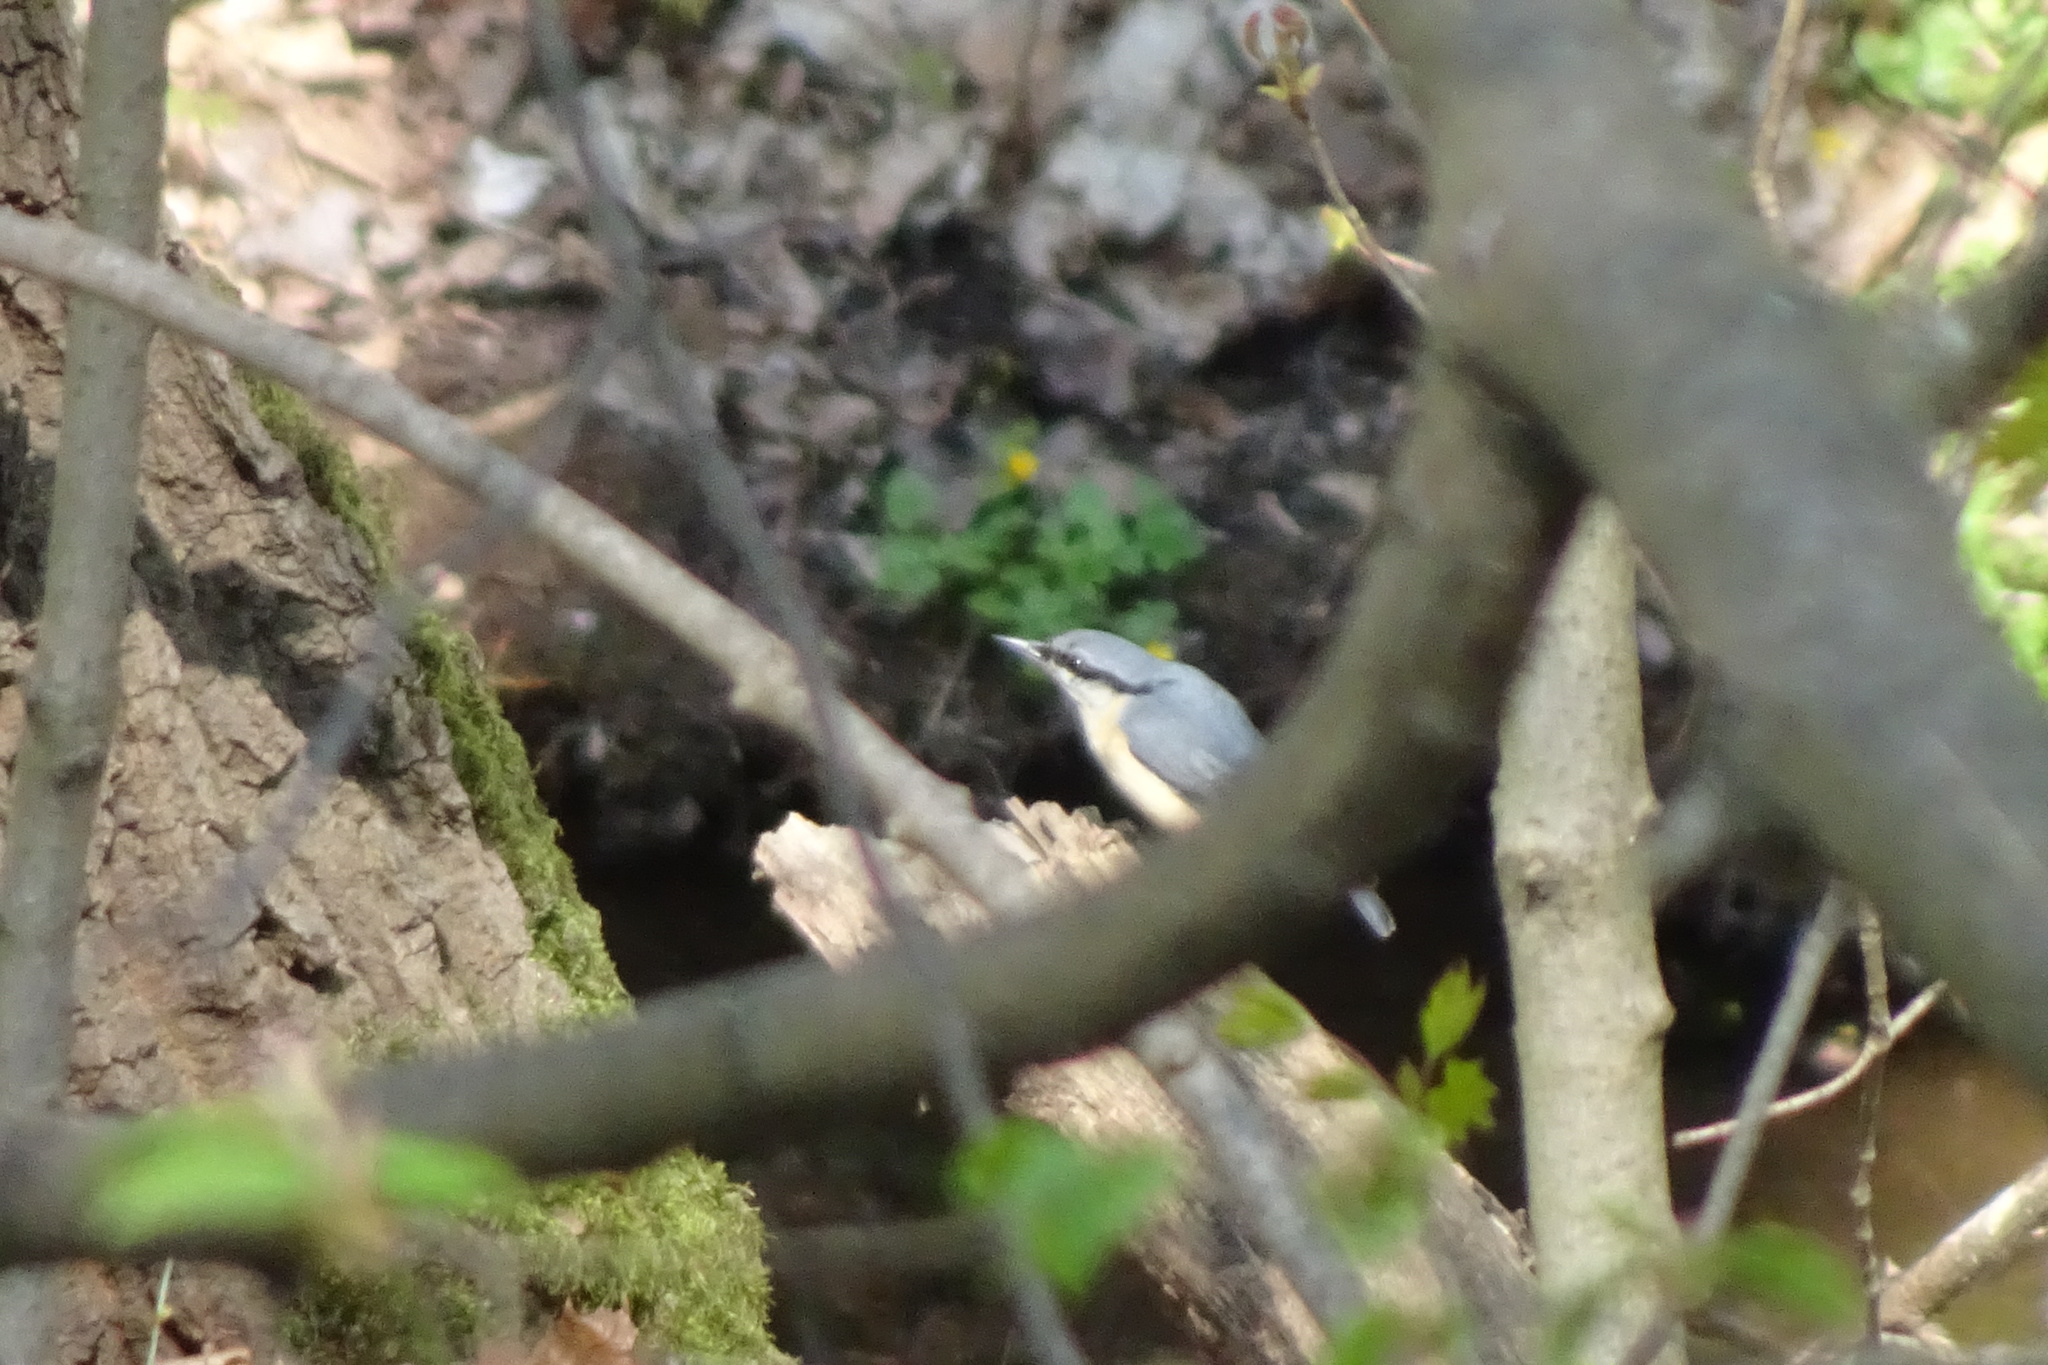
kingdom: Animalia
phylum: Chordata
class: Aves
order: Passeriformes
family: Sittidae
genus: Sitta
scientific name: Sitta europaea
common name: Eurasian nuthatch
